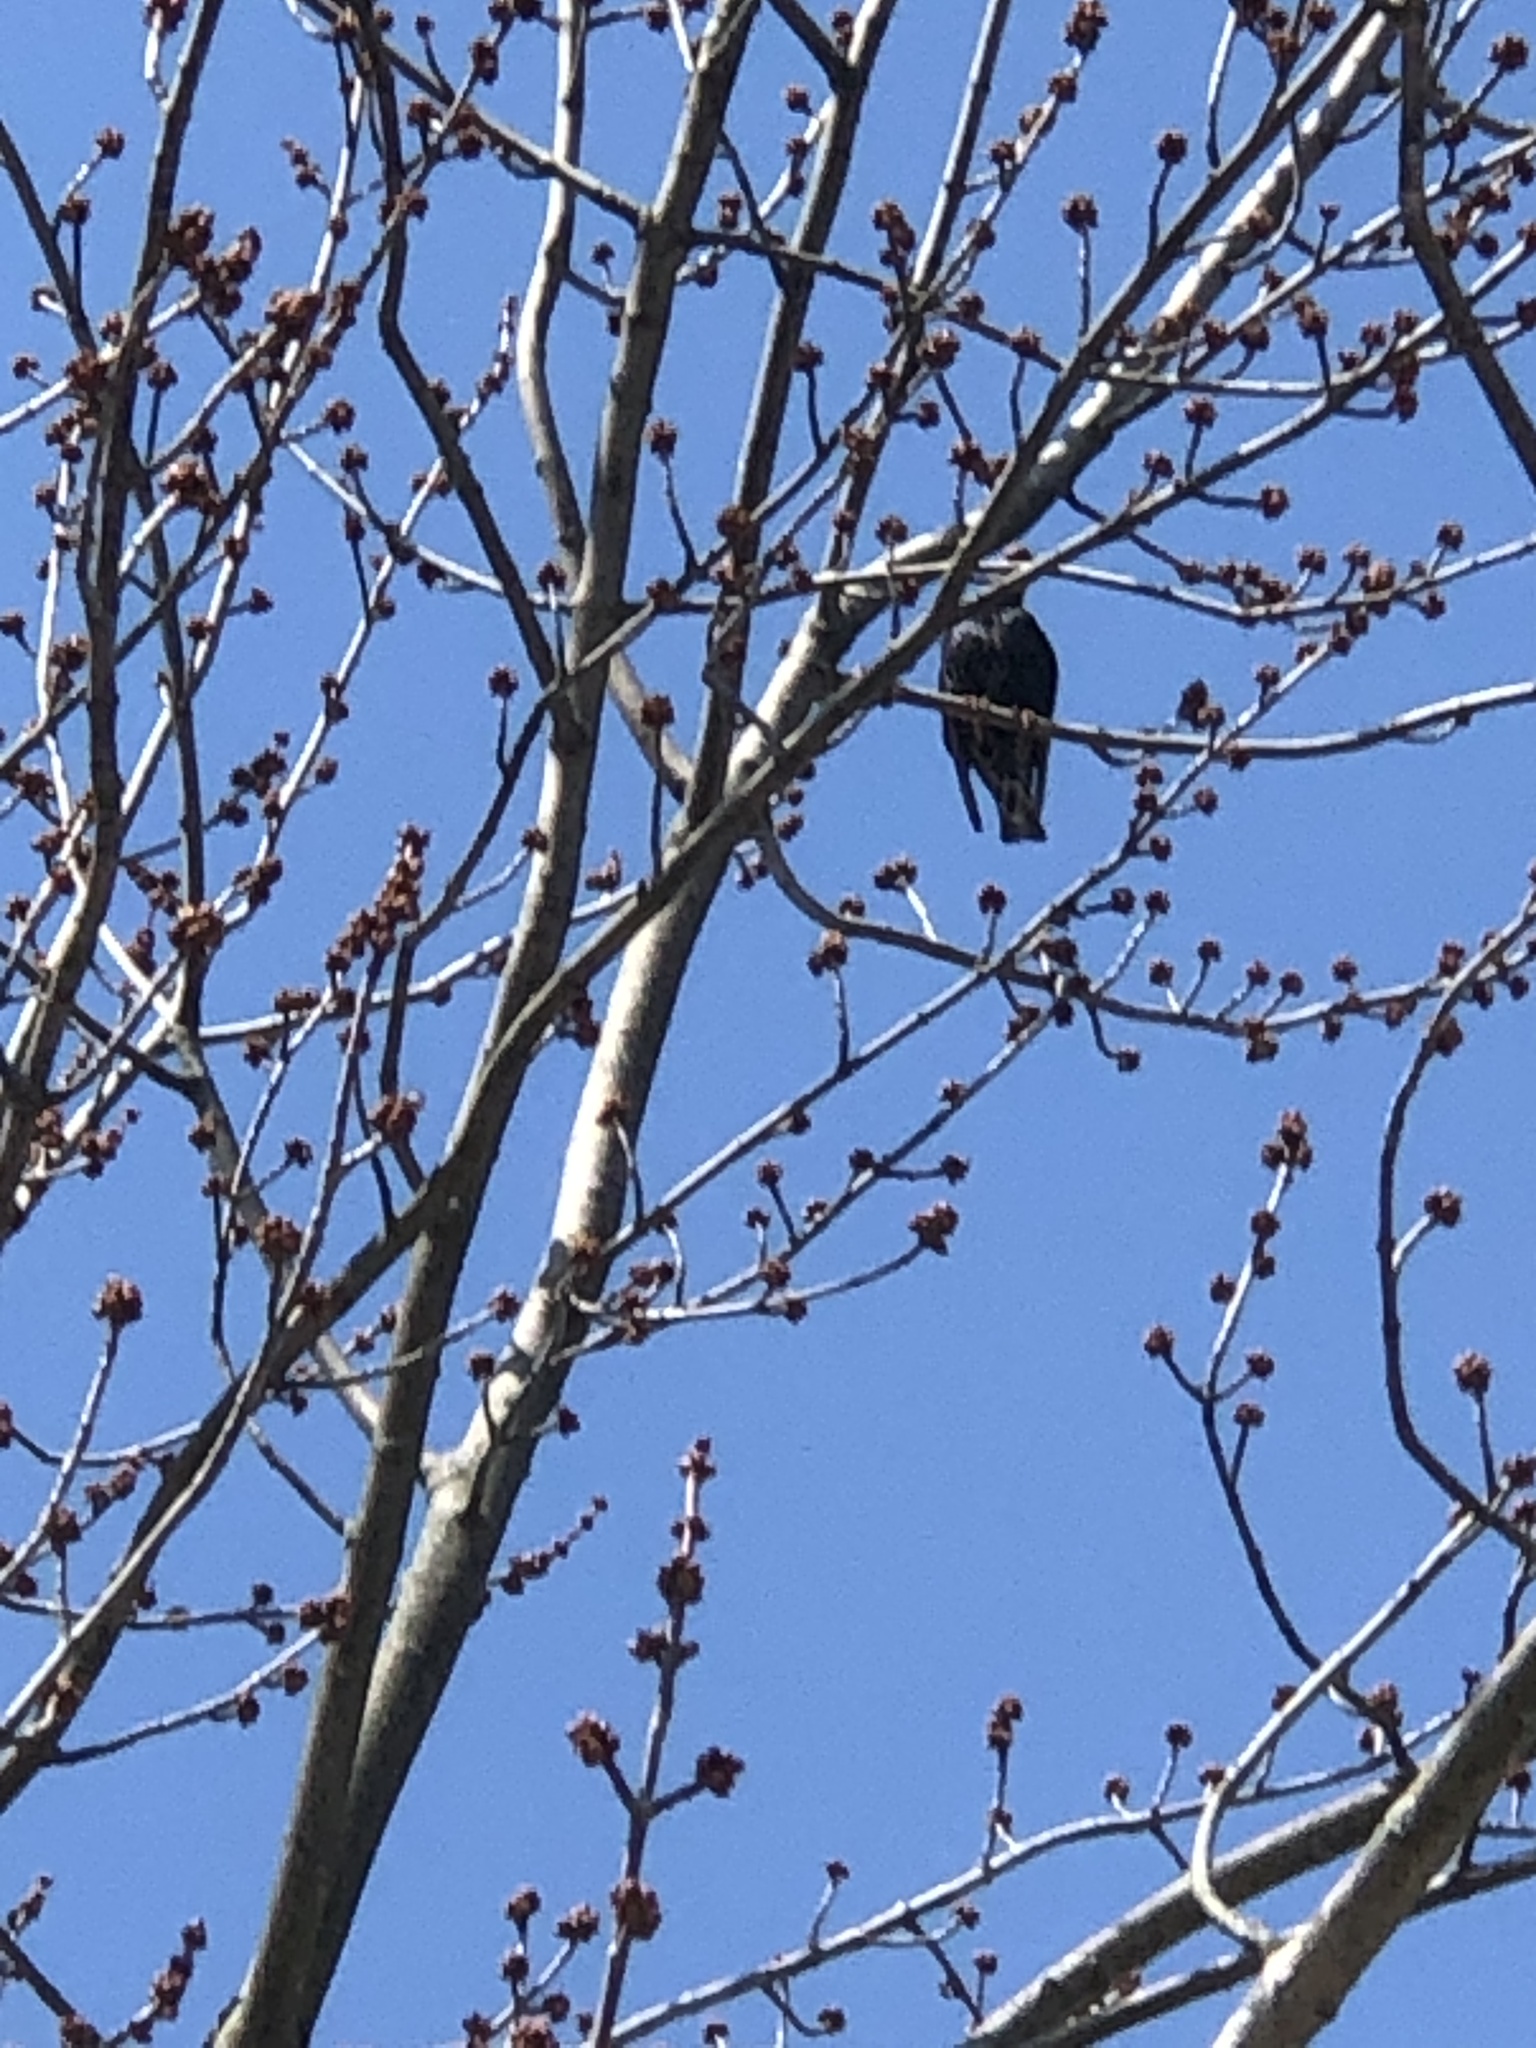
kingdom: Animalia
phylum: Chordata
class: Aves
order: Passeriformes
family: Sturnidae
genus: Sturnus
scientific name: Sturnus vulgaris
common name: Common starling
